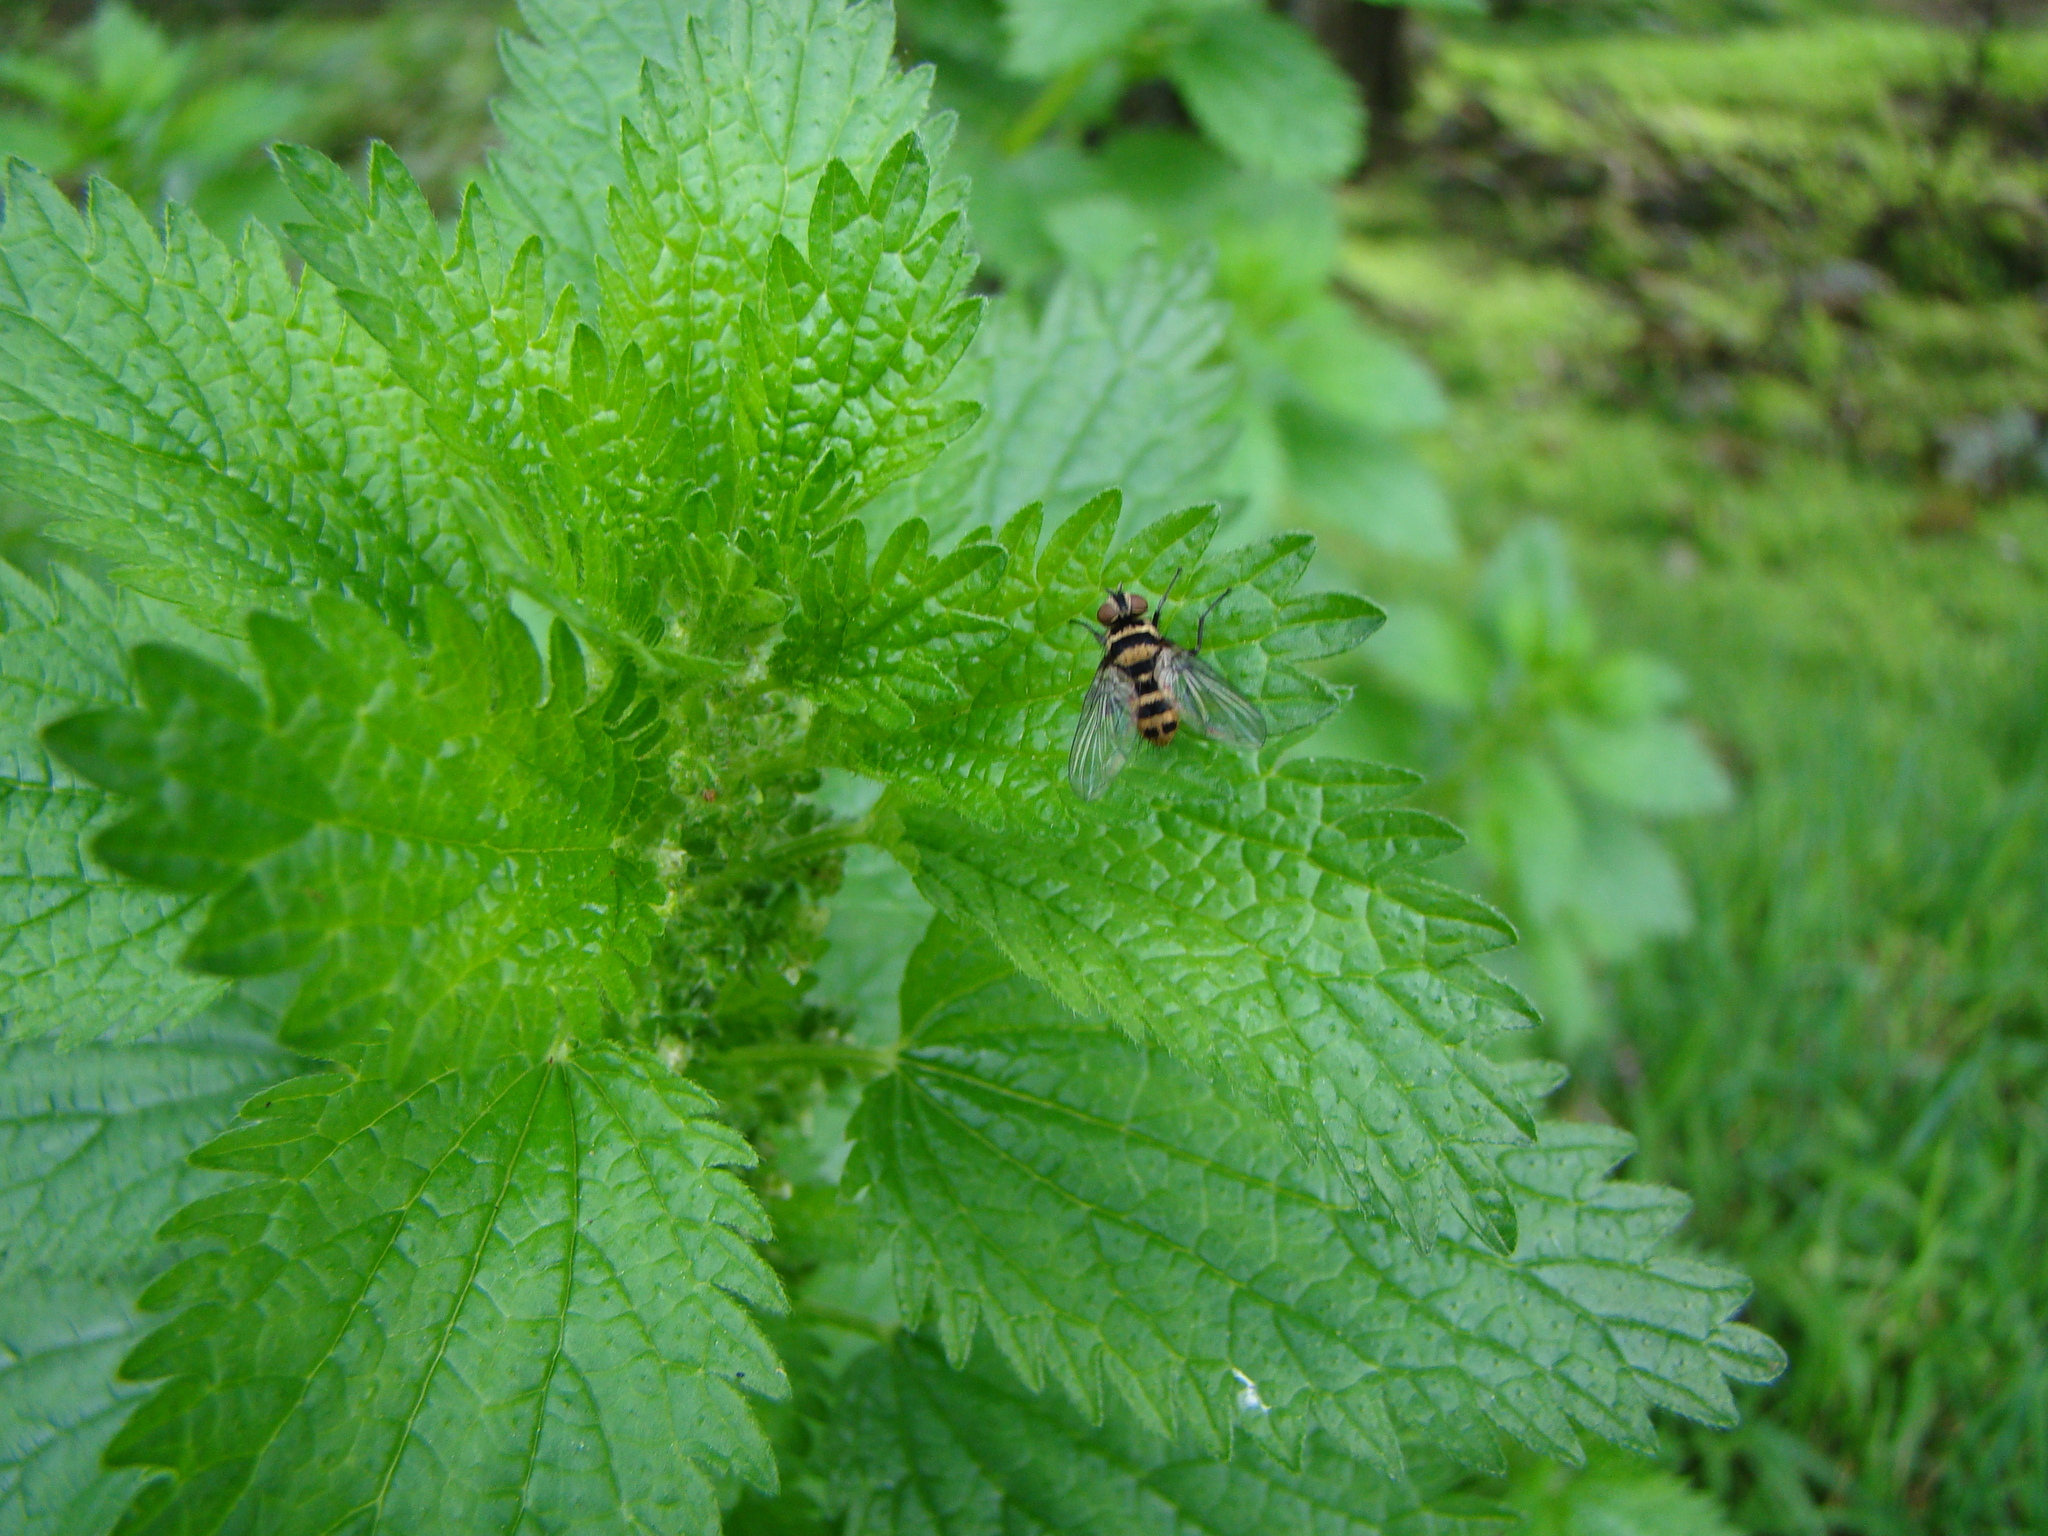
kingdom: Animalia
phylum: Arthropoda
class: Insecta
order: Diptera
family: Tachinidae
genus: Trigonospila
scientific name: Trigonospila brevifacies
